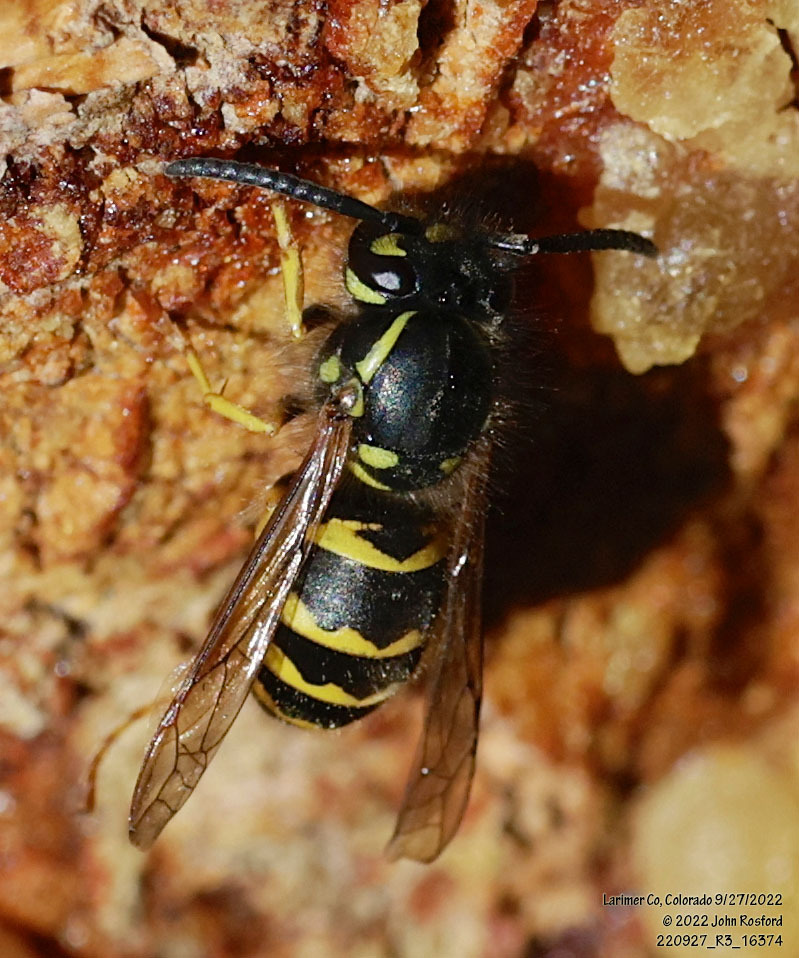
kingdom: Animalia
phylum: Arthropoda
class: Insecta
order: Hymenoptera
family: Vespidae
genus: Vespula
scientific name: Vespula alascensis
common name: Alaska yellowjacket
